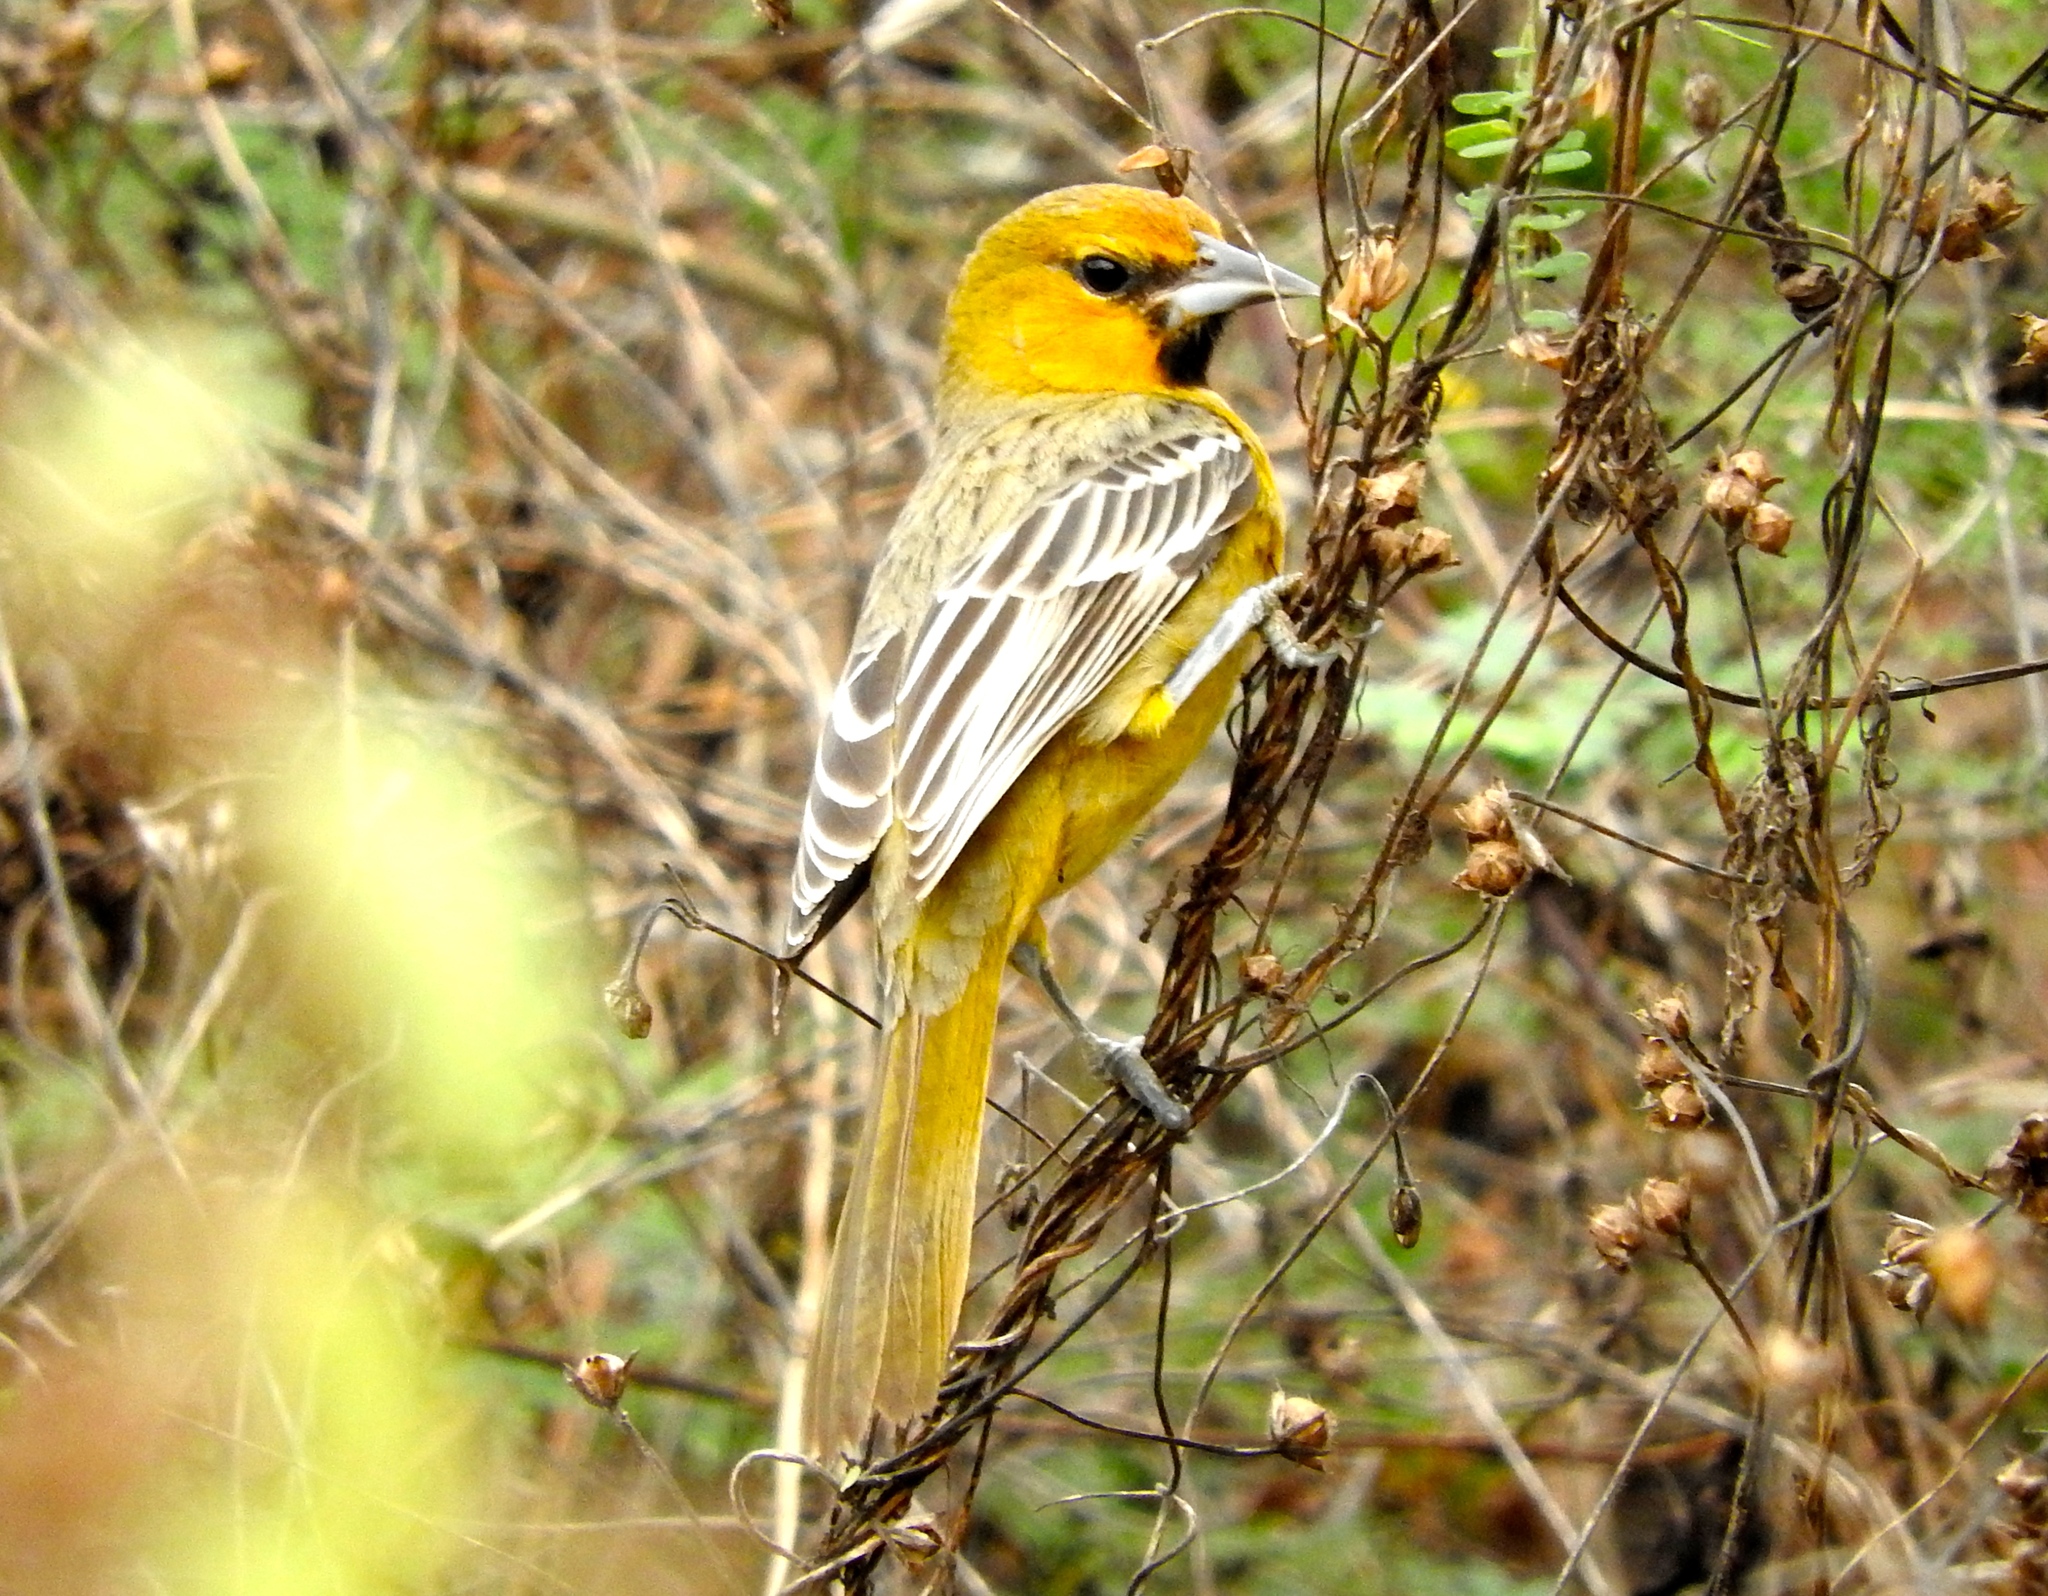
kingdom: Animalia
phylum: Chordata
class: Aves
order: Passeriformes
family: Icteridae
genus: Icterus
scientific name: Icterus pustulatus
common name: Streak-backed oriole
